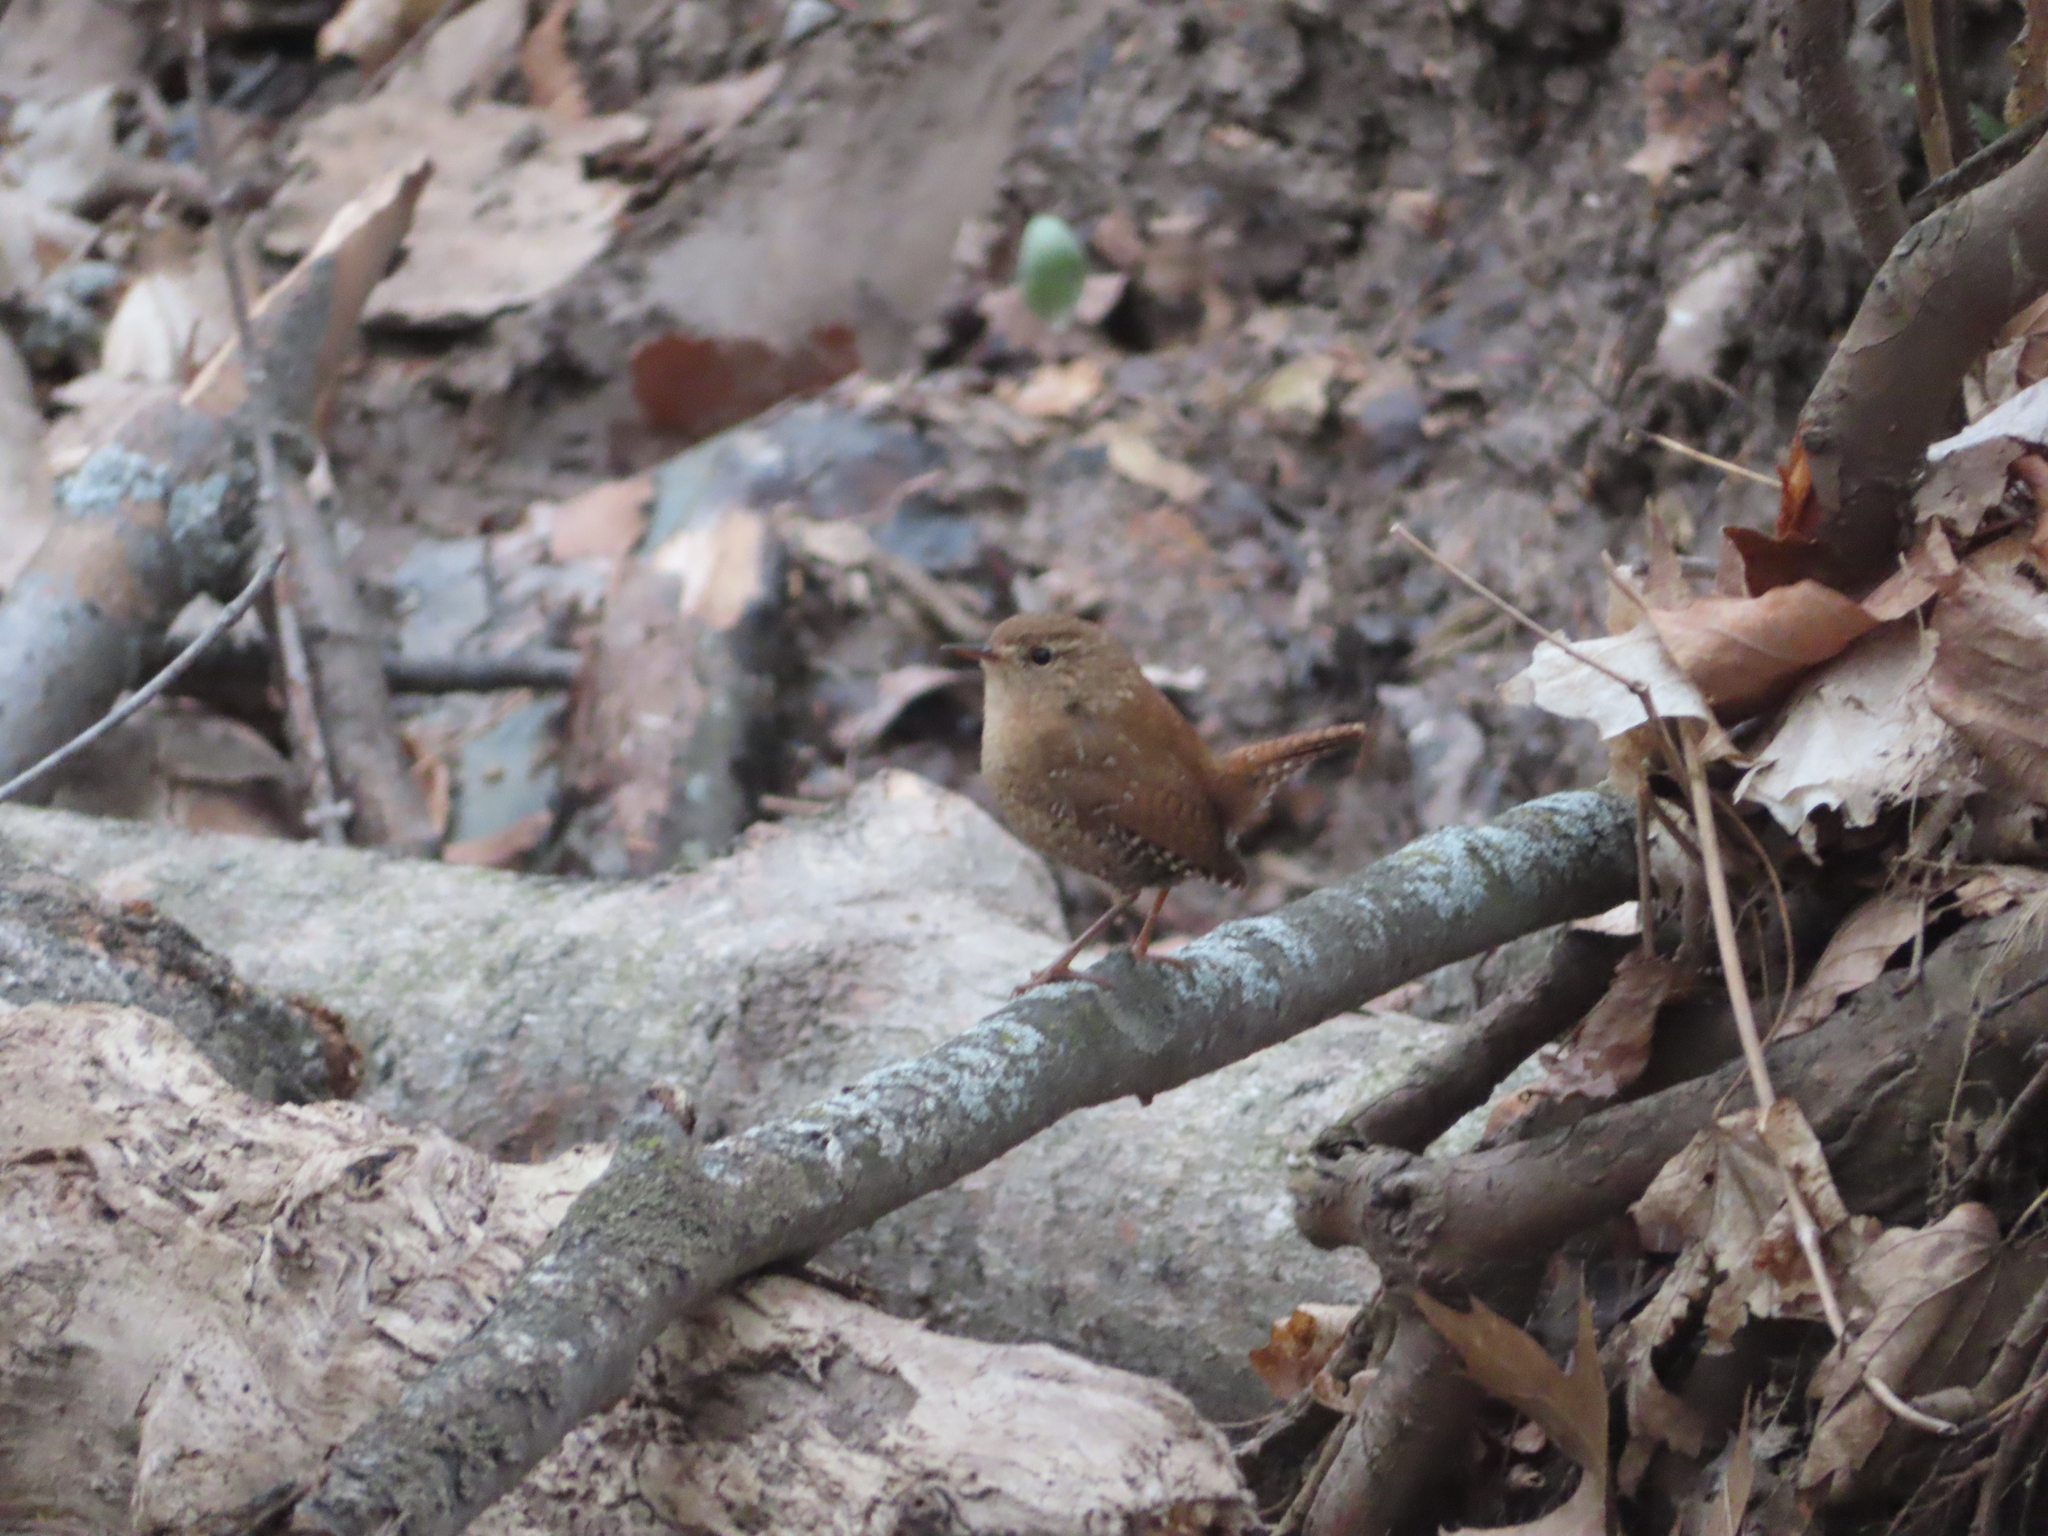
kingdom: Animalia
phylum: Chordata
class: Aves
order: Passeriformes
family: Troglodytidae
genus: Troglodytes
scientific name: Troglodytes hiemalis
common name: Winter wren
